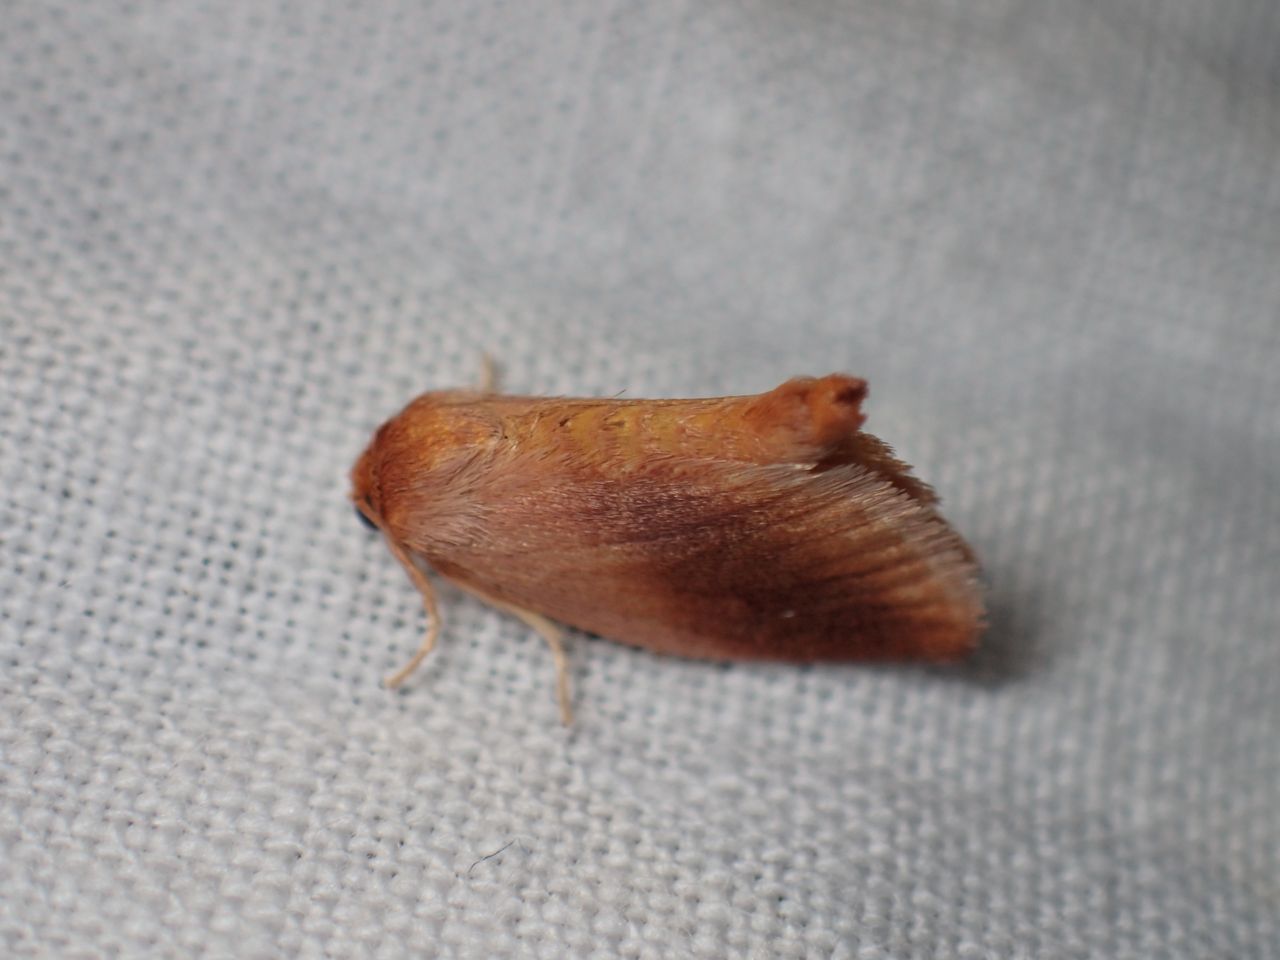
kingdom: Animalia
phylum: Arthropoda
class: Insecta
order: Lepidoptera
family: Limacodidae
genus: Tortricidia
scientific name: Tortricidia testacea
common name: Early button slug moth
